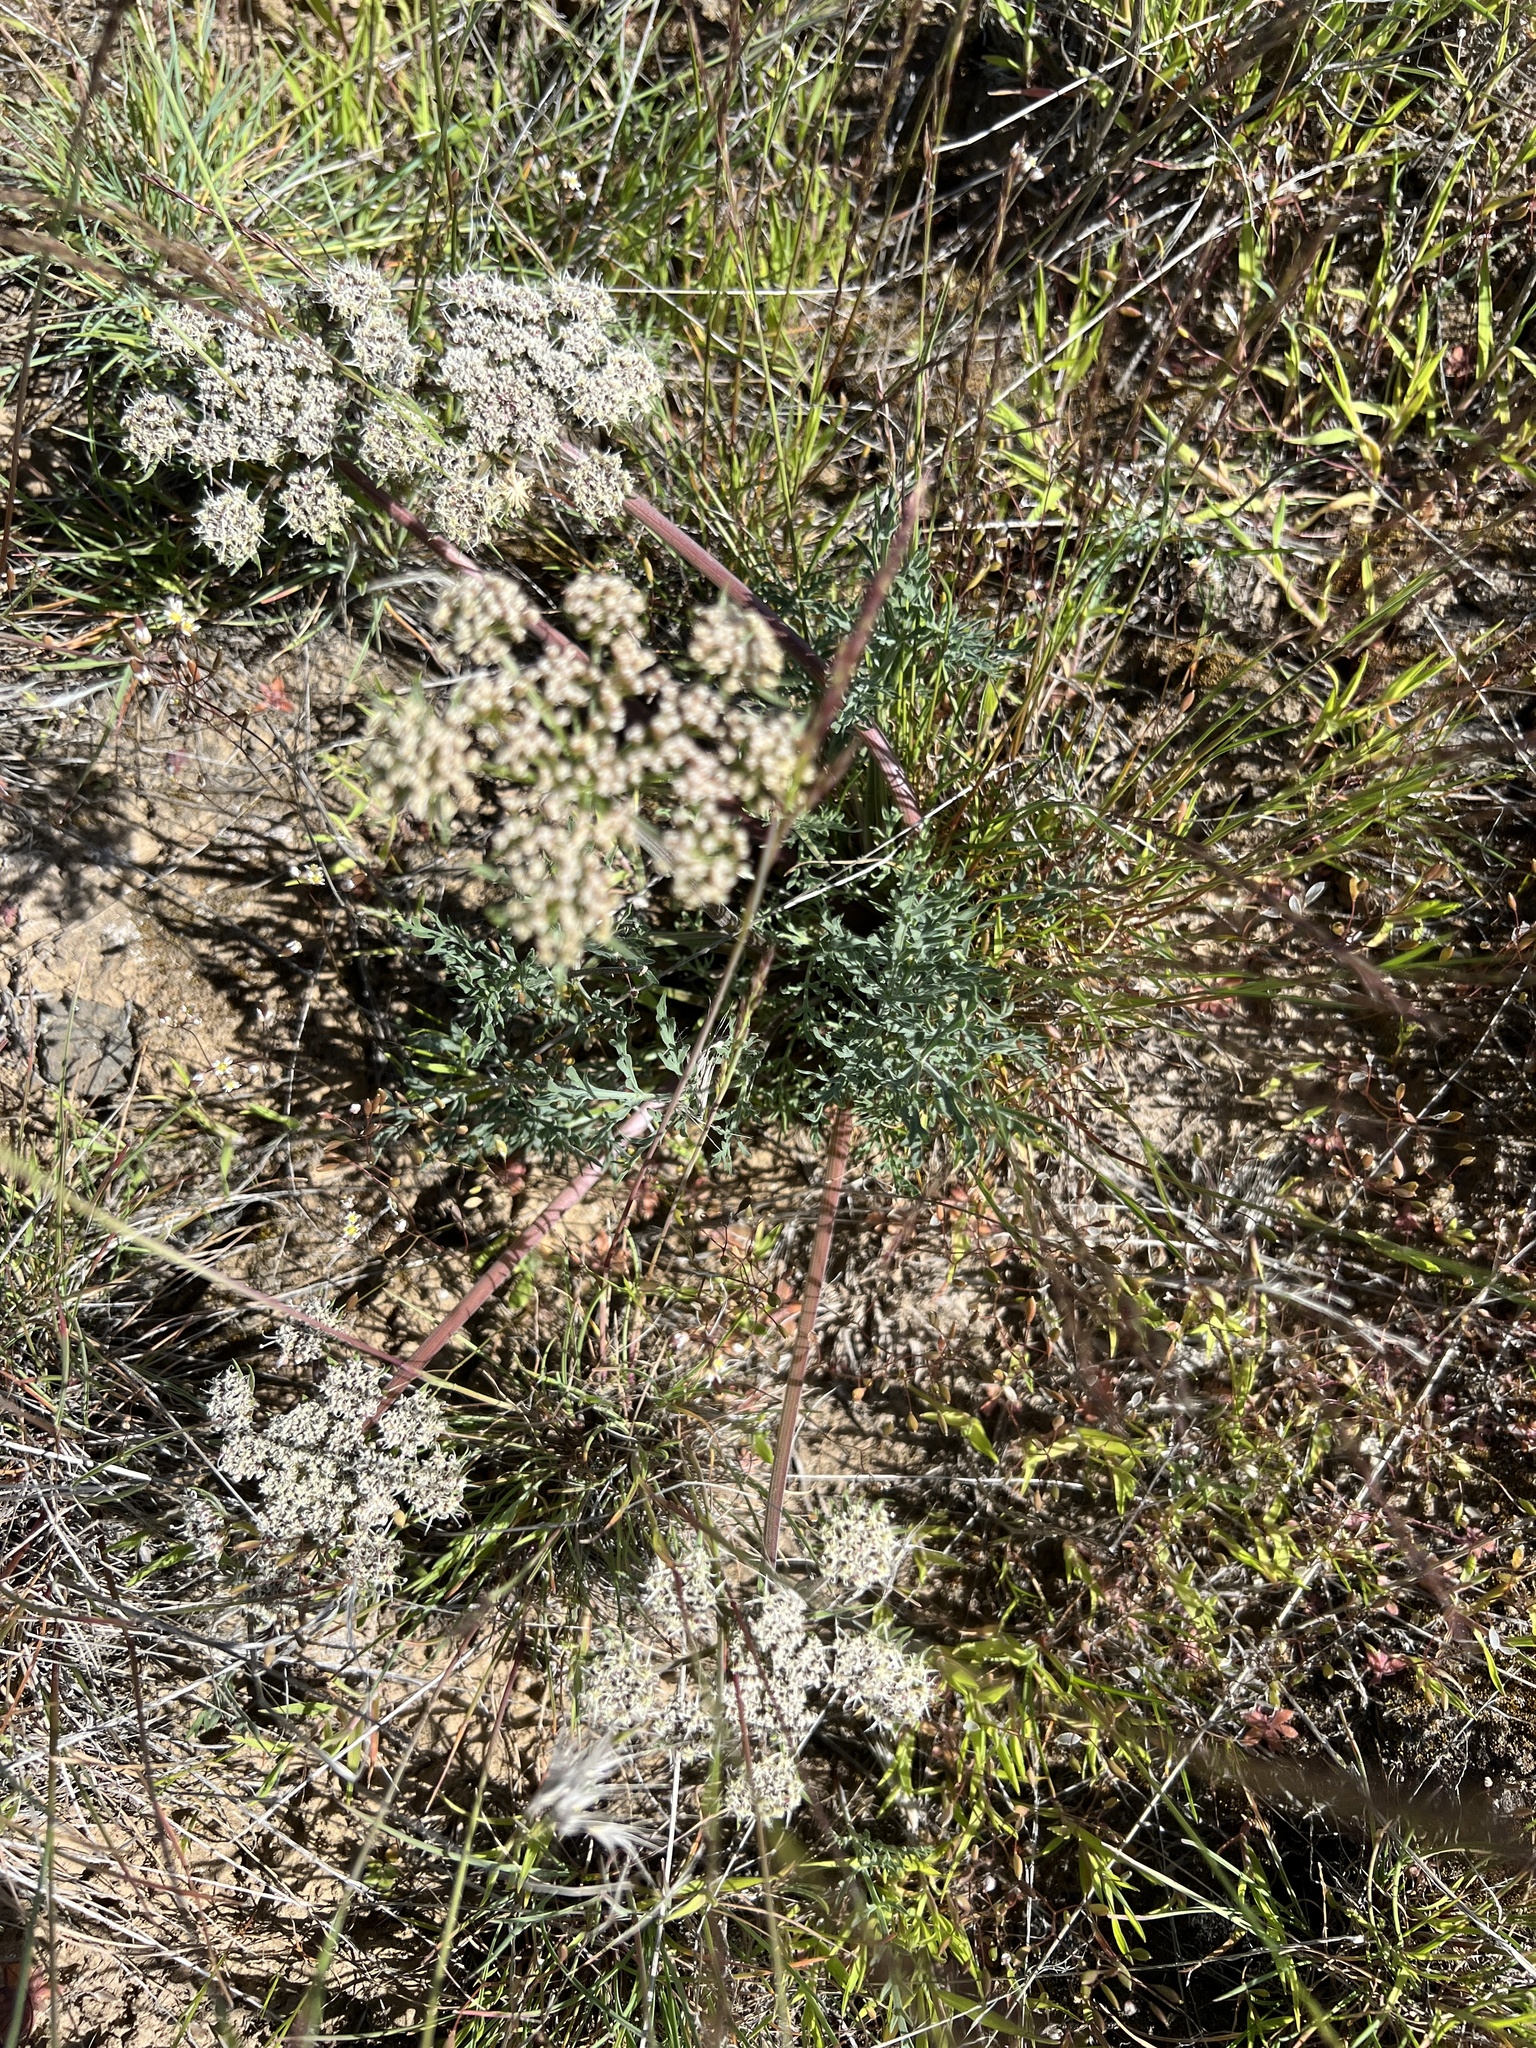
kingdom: Plantae
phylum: Tracheophyta
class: Magnoliopsida
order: Apiales
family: Apiaceae
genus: Lomatium
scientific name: Lomatium macrocarpum
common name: Big-seed biscuitroot
